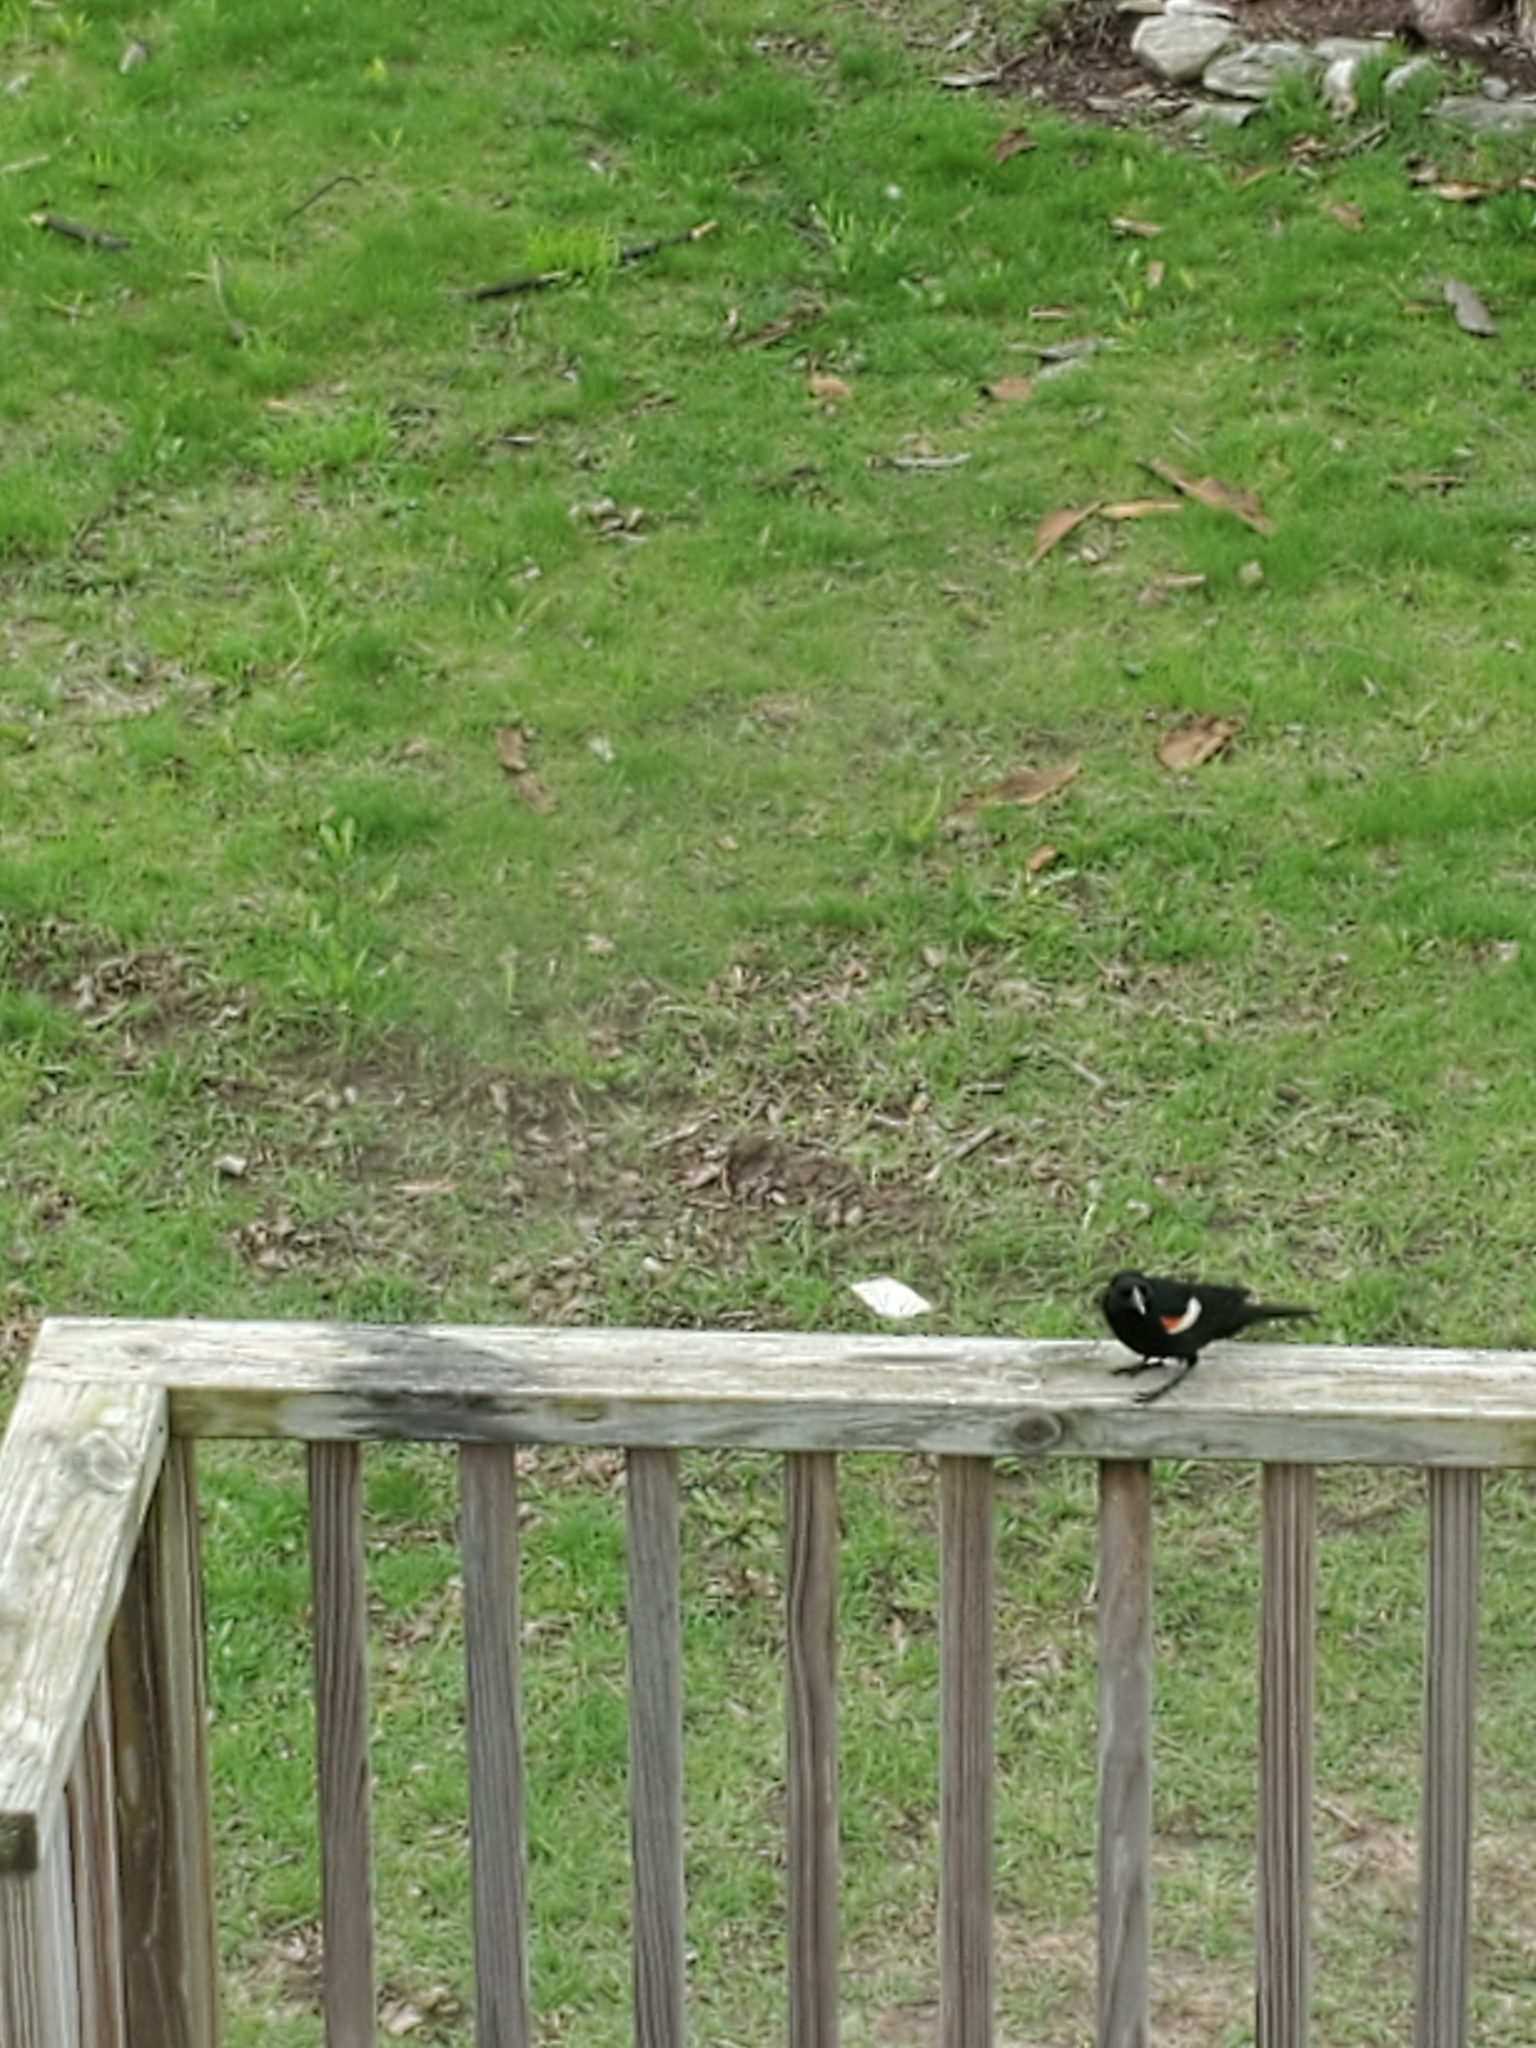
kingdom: Animalia
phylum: Chordata
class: Aves
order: Passeriformes
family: Icteridae
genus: Agelaius
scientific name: Agelaius phoeniceus
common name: Red-winged blackbird
